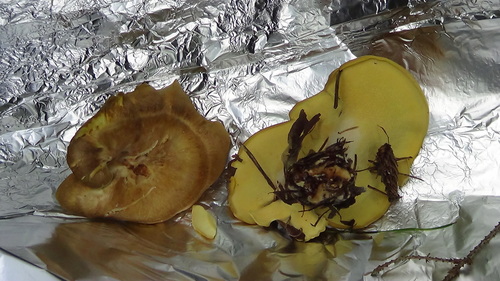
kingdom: Fungi
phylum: Basidiomycota
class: Agaricomycetes
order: Polyporales
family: Steccherinaceae
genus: Xanthoporus
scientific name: Xanthoporus syringae
